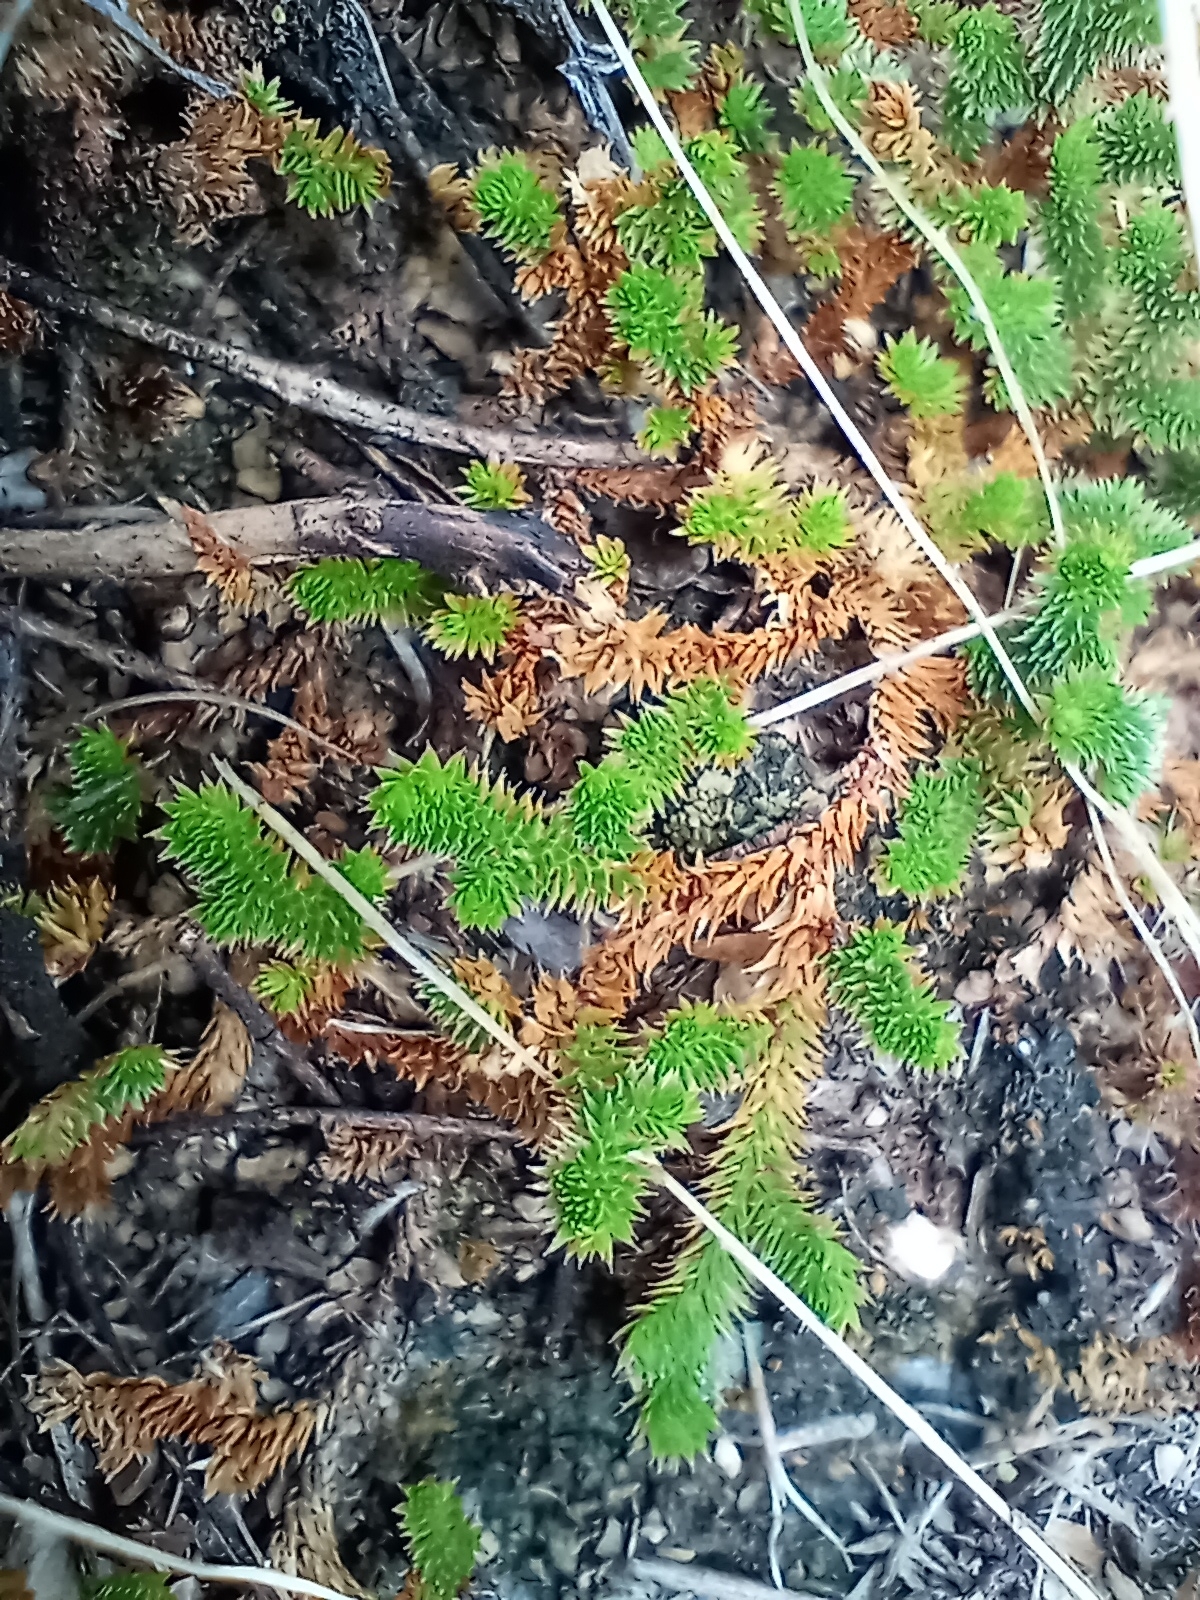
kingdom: Plantae
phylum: Tracheophyta
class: Lycopodiopsida
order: Selaginellales
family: Selaginellaceae
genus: Selaginella
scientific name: Selaginella arizonica
